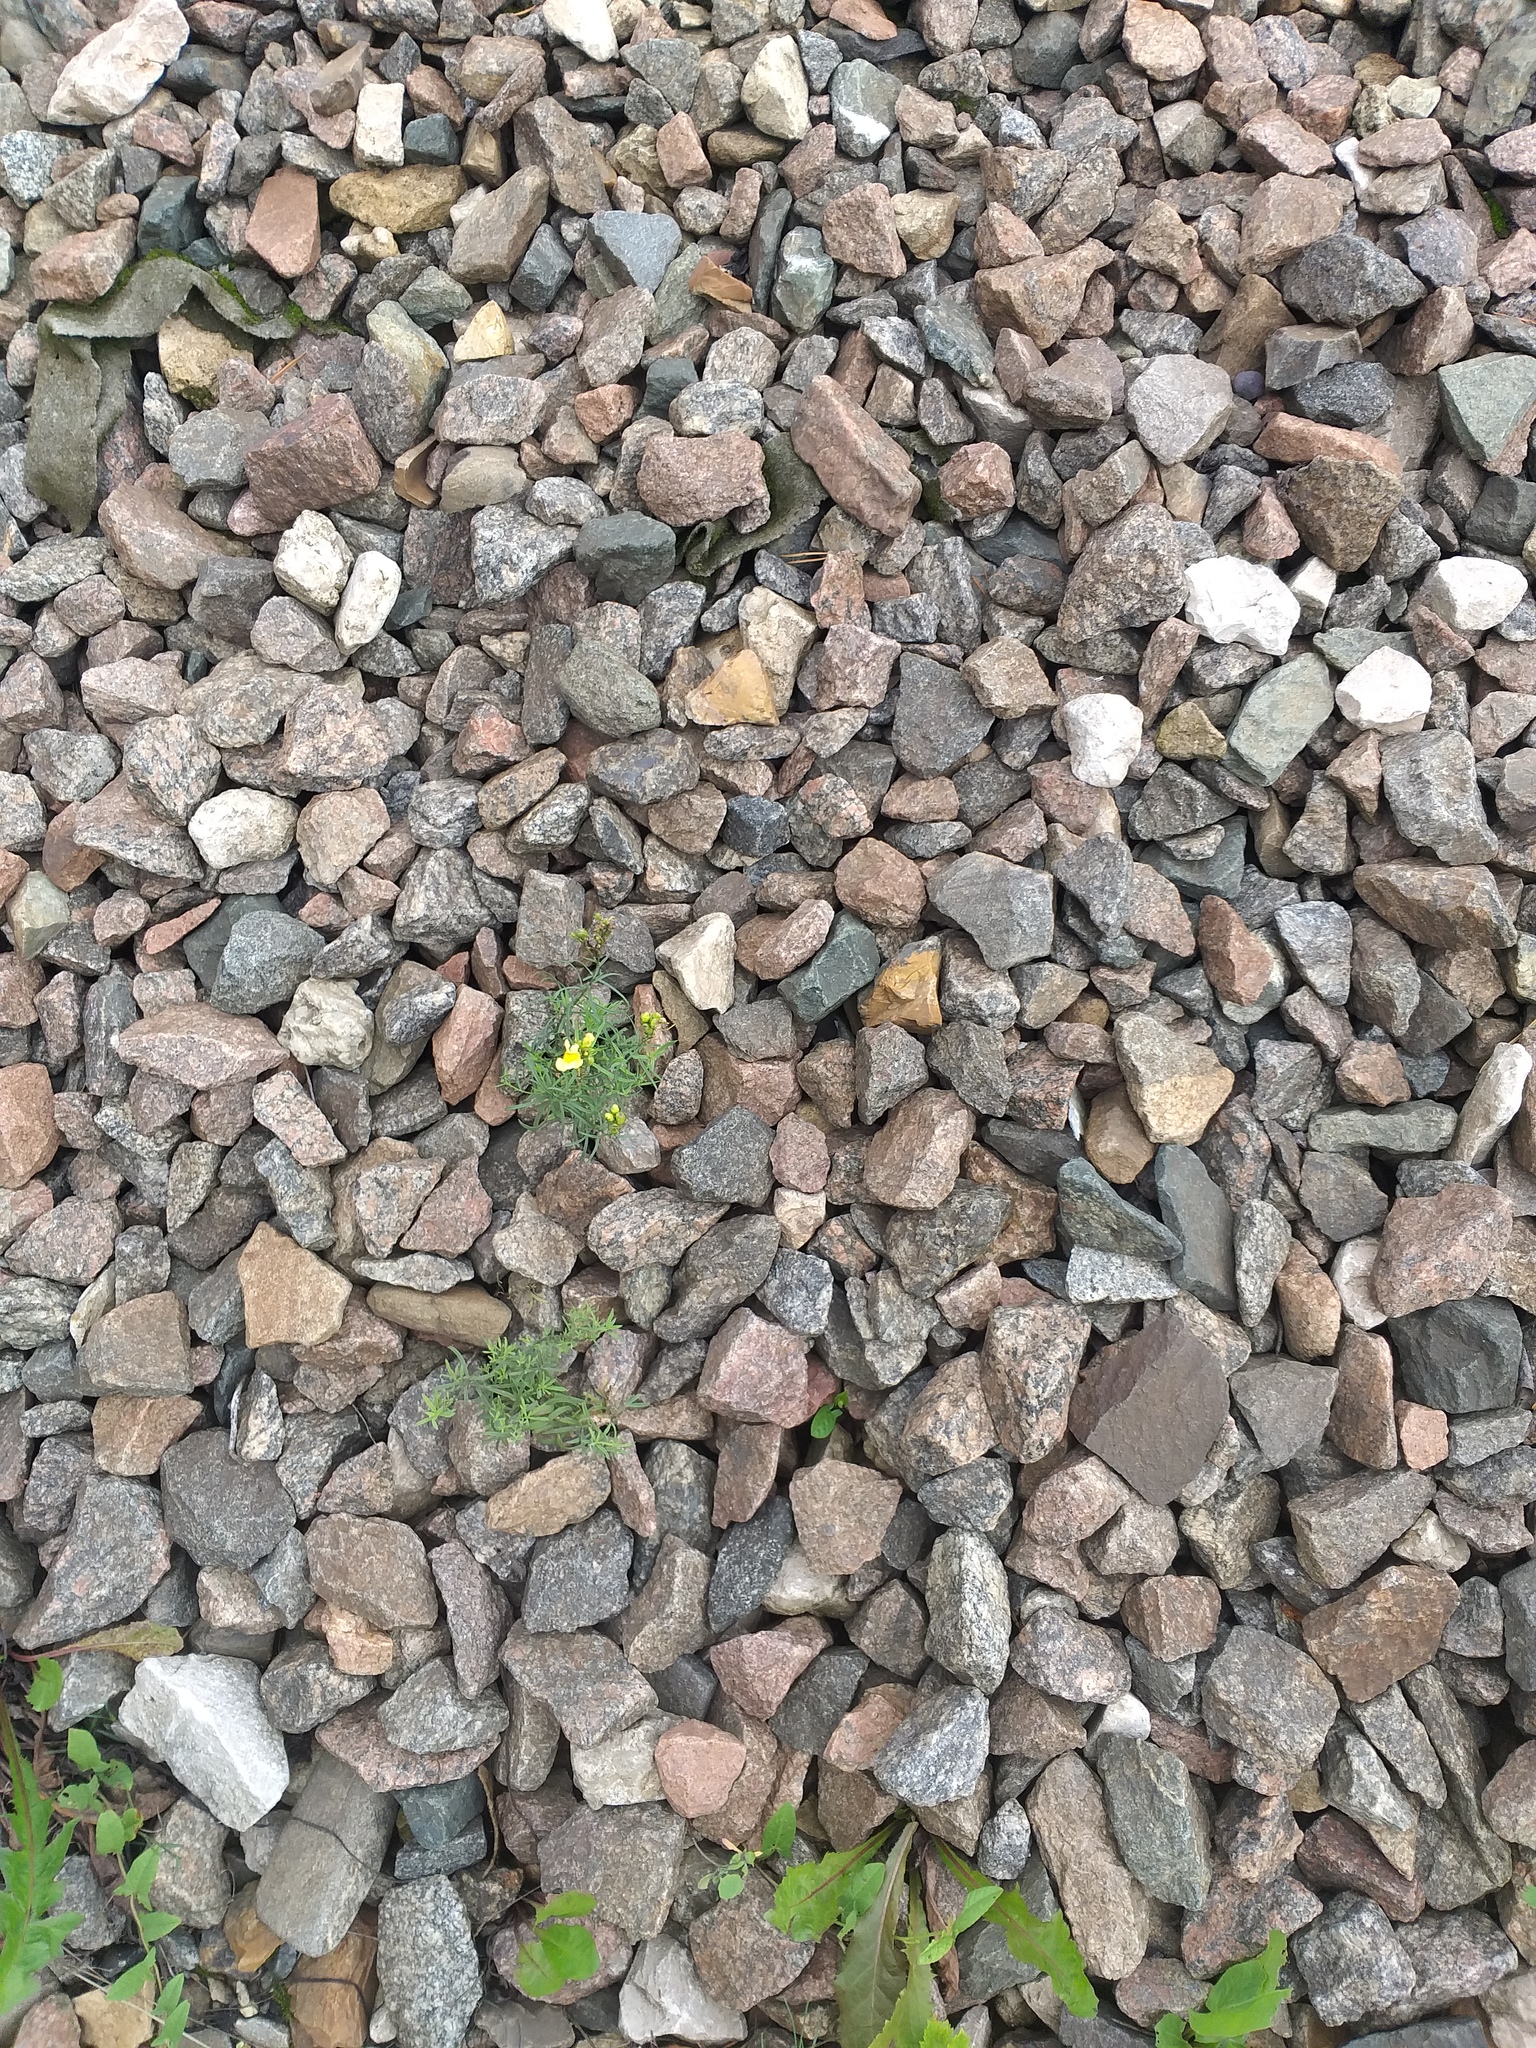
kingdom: Plantae
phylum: Tracheophyta
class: Magnoliopsida
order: Lamiales
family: Plantaginaceae
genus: Linaria
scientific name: Linaria vulgaris
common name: Butter and eggs
